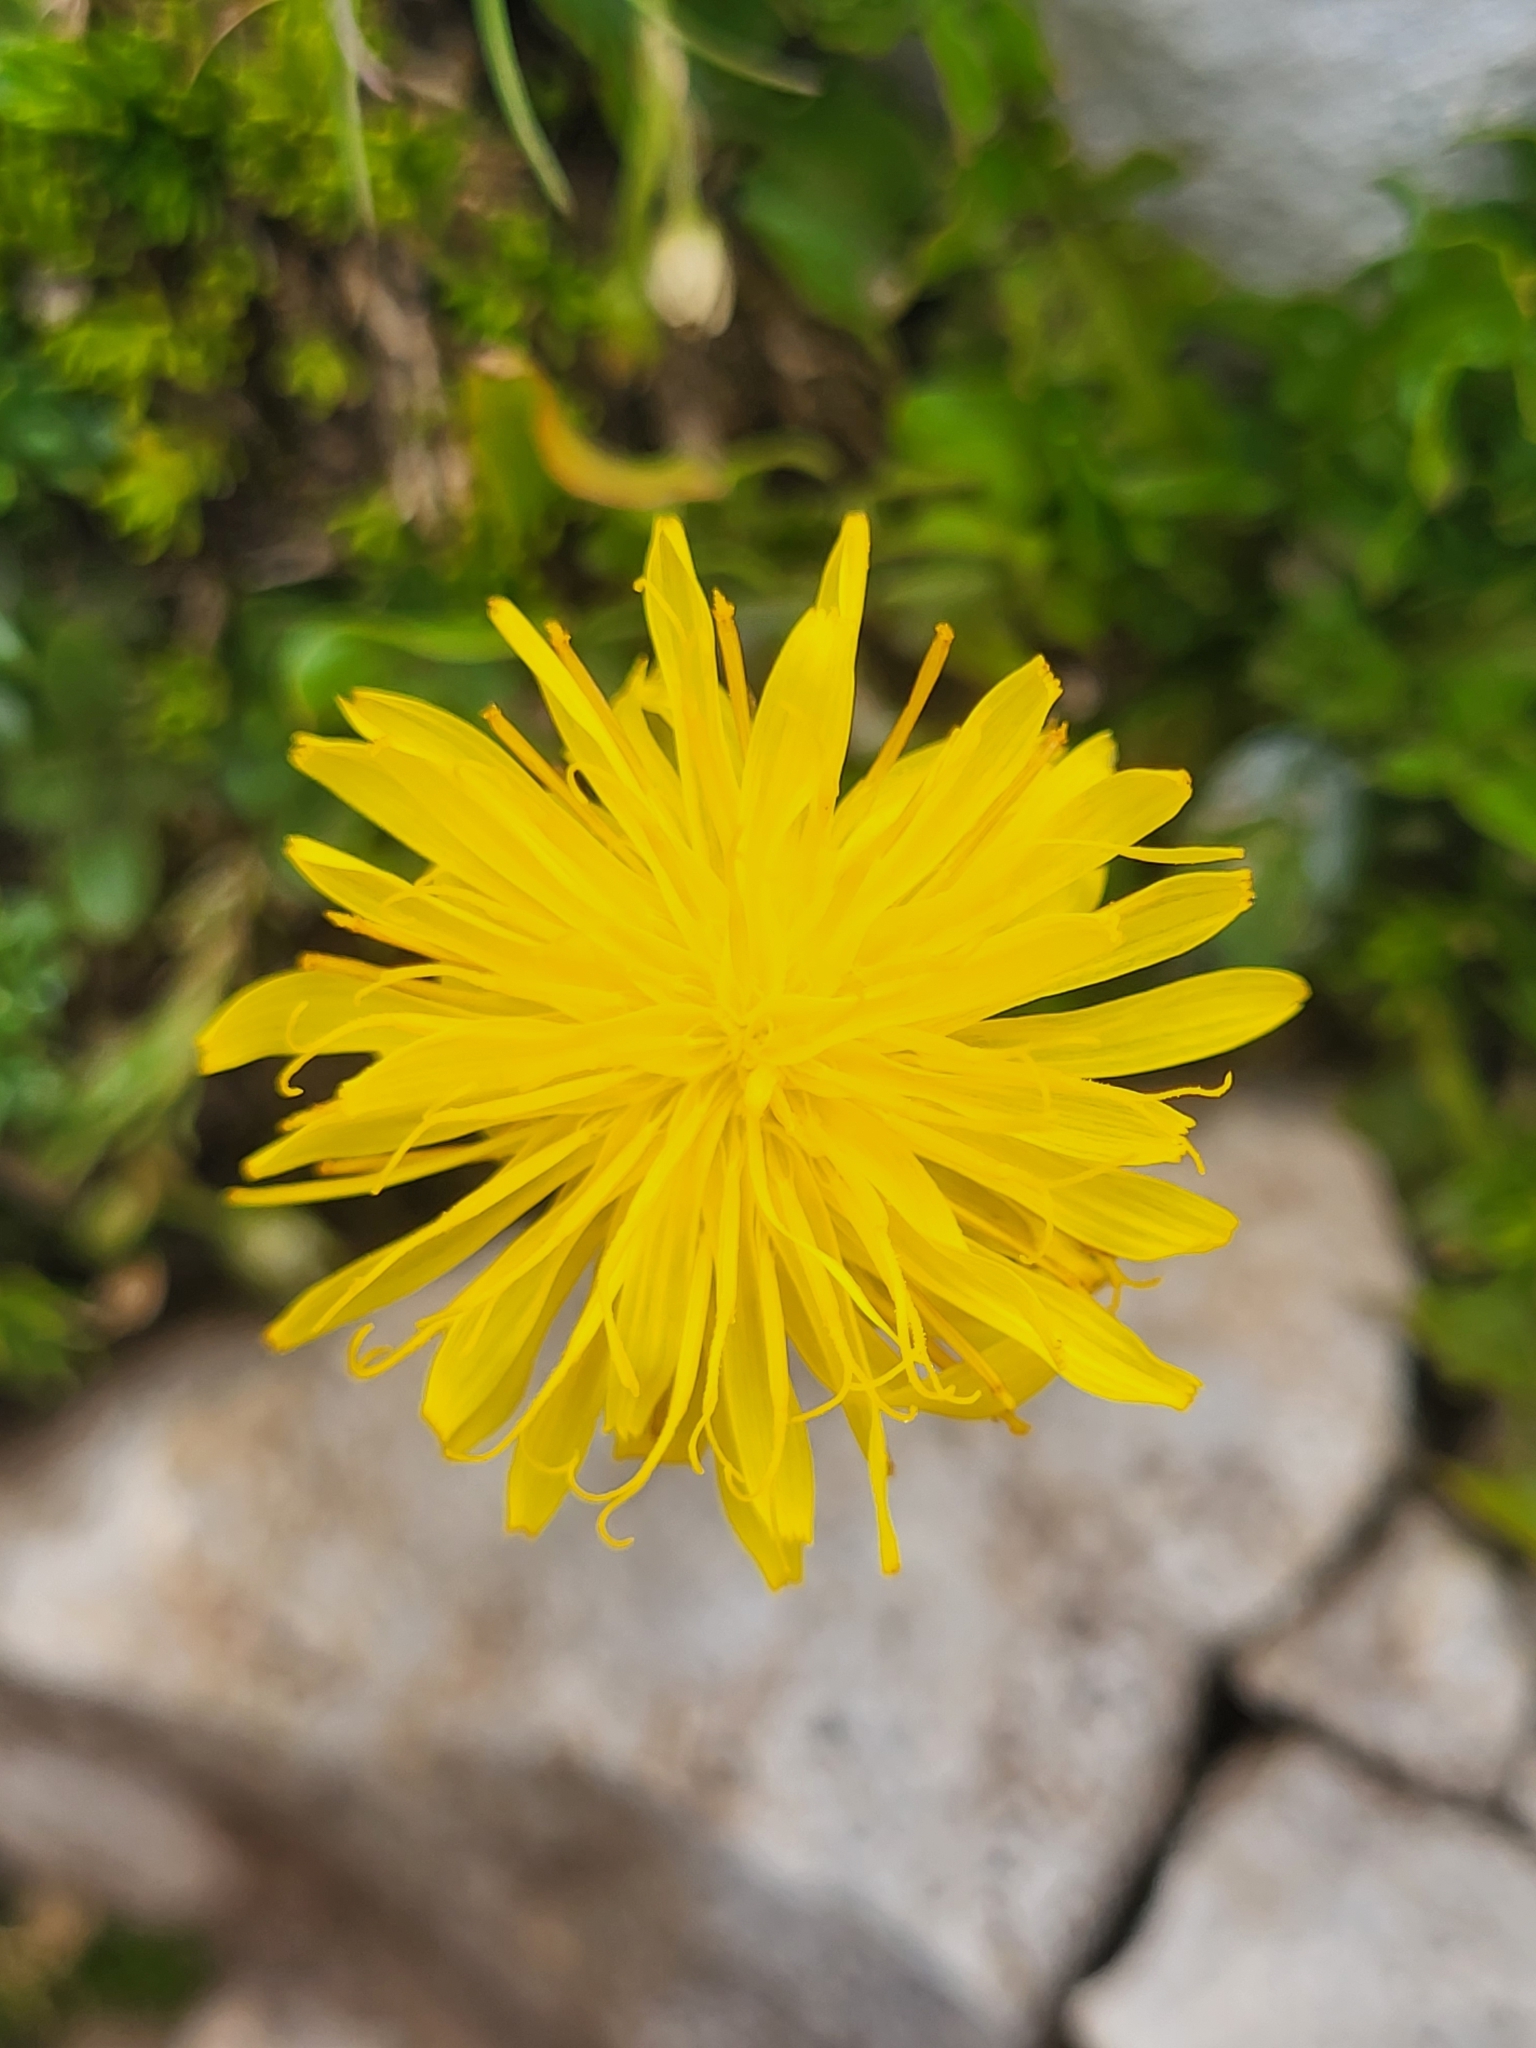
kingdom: Plantae
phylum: Tracheophyta
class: Magnoliopsida
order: Asterales
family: Asteraceae
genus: Taraxacum
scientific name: Taraxacum
